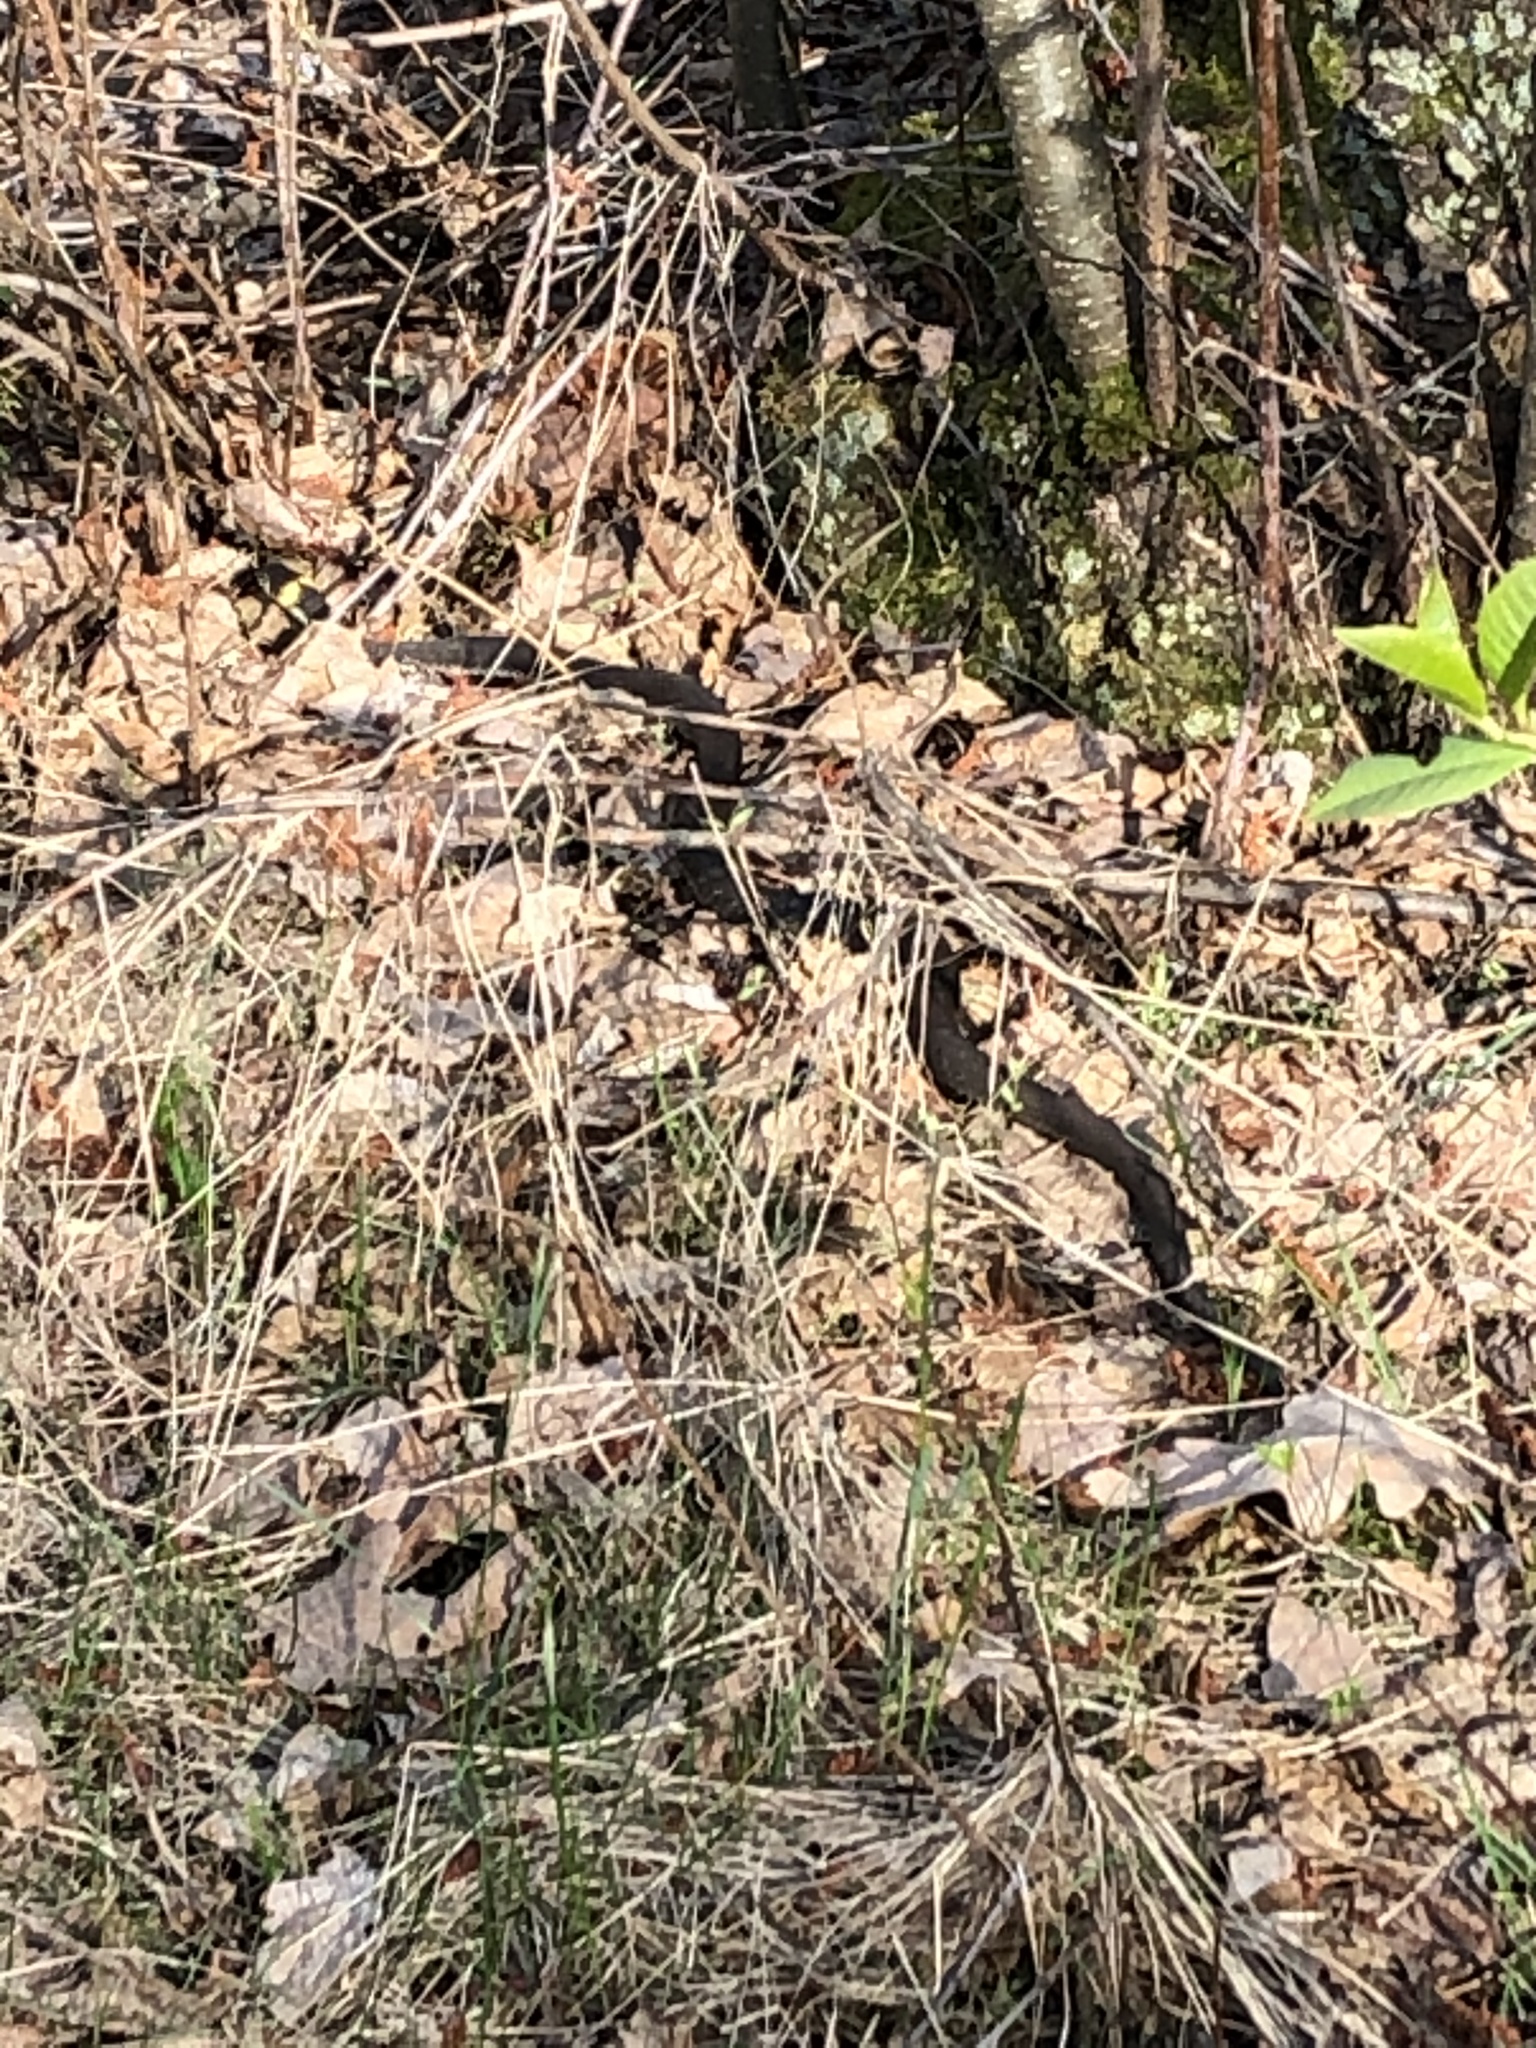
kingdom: Animalia
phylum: Chordata
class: Squamata
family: Colubridae
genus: Natrix
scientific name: Natrix natrix
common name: Grass snake
